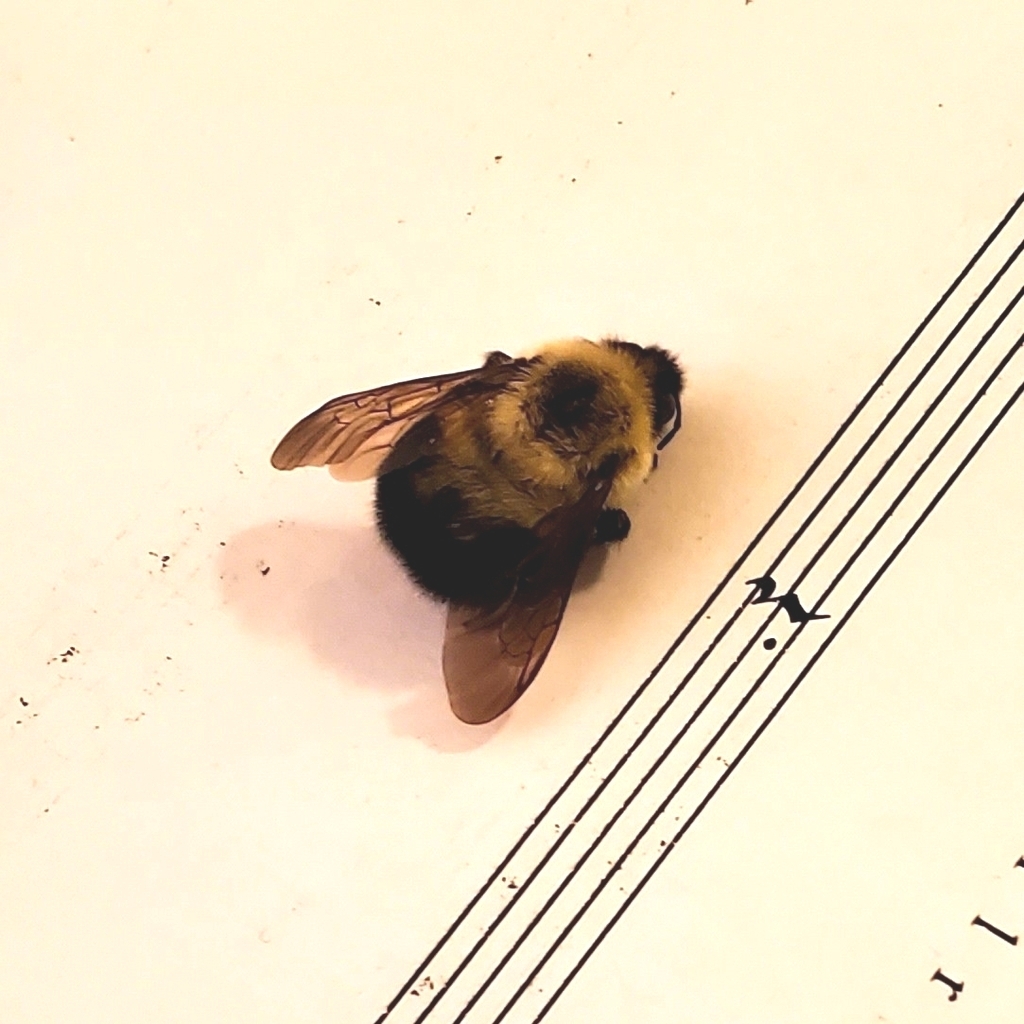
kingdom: Animalia
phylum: Arthropoda
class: Insecta
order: Hymenoptera
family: Apidae
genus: Bombus
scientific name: Bombus bimaculatus
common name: Two-spotted bumble bee
